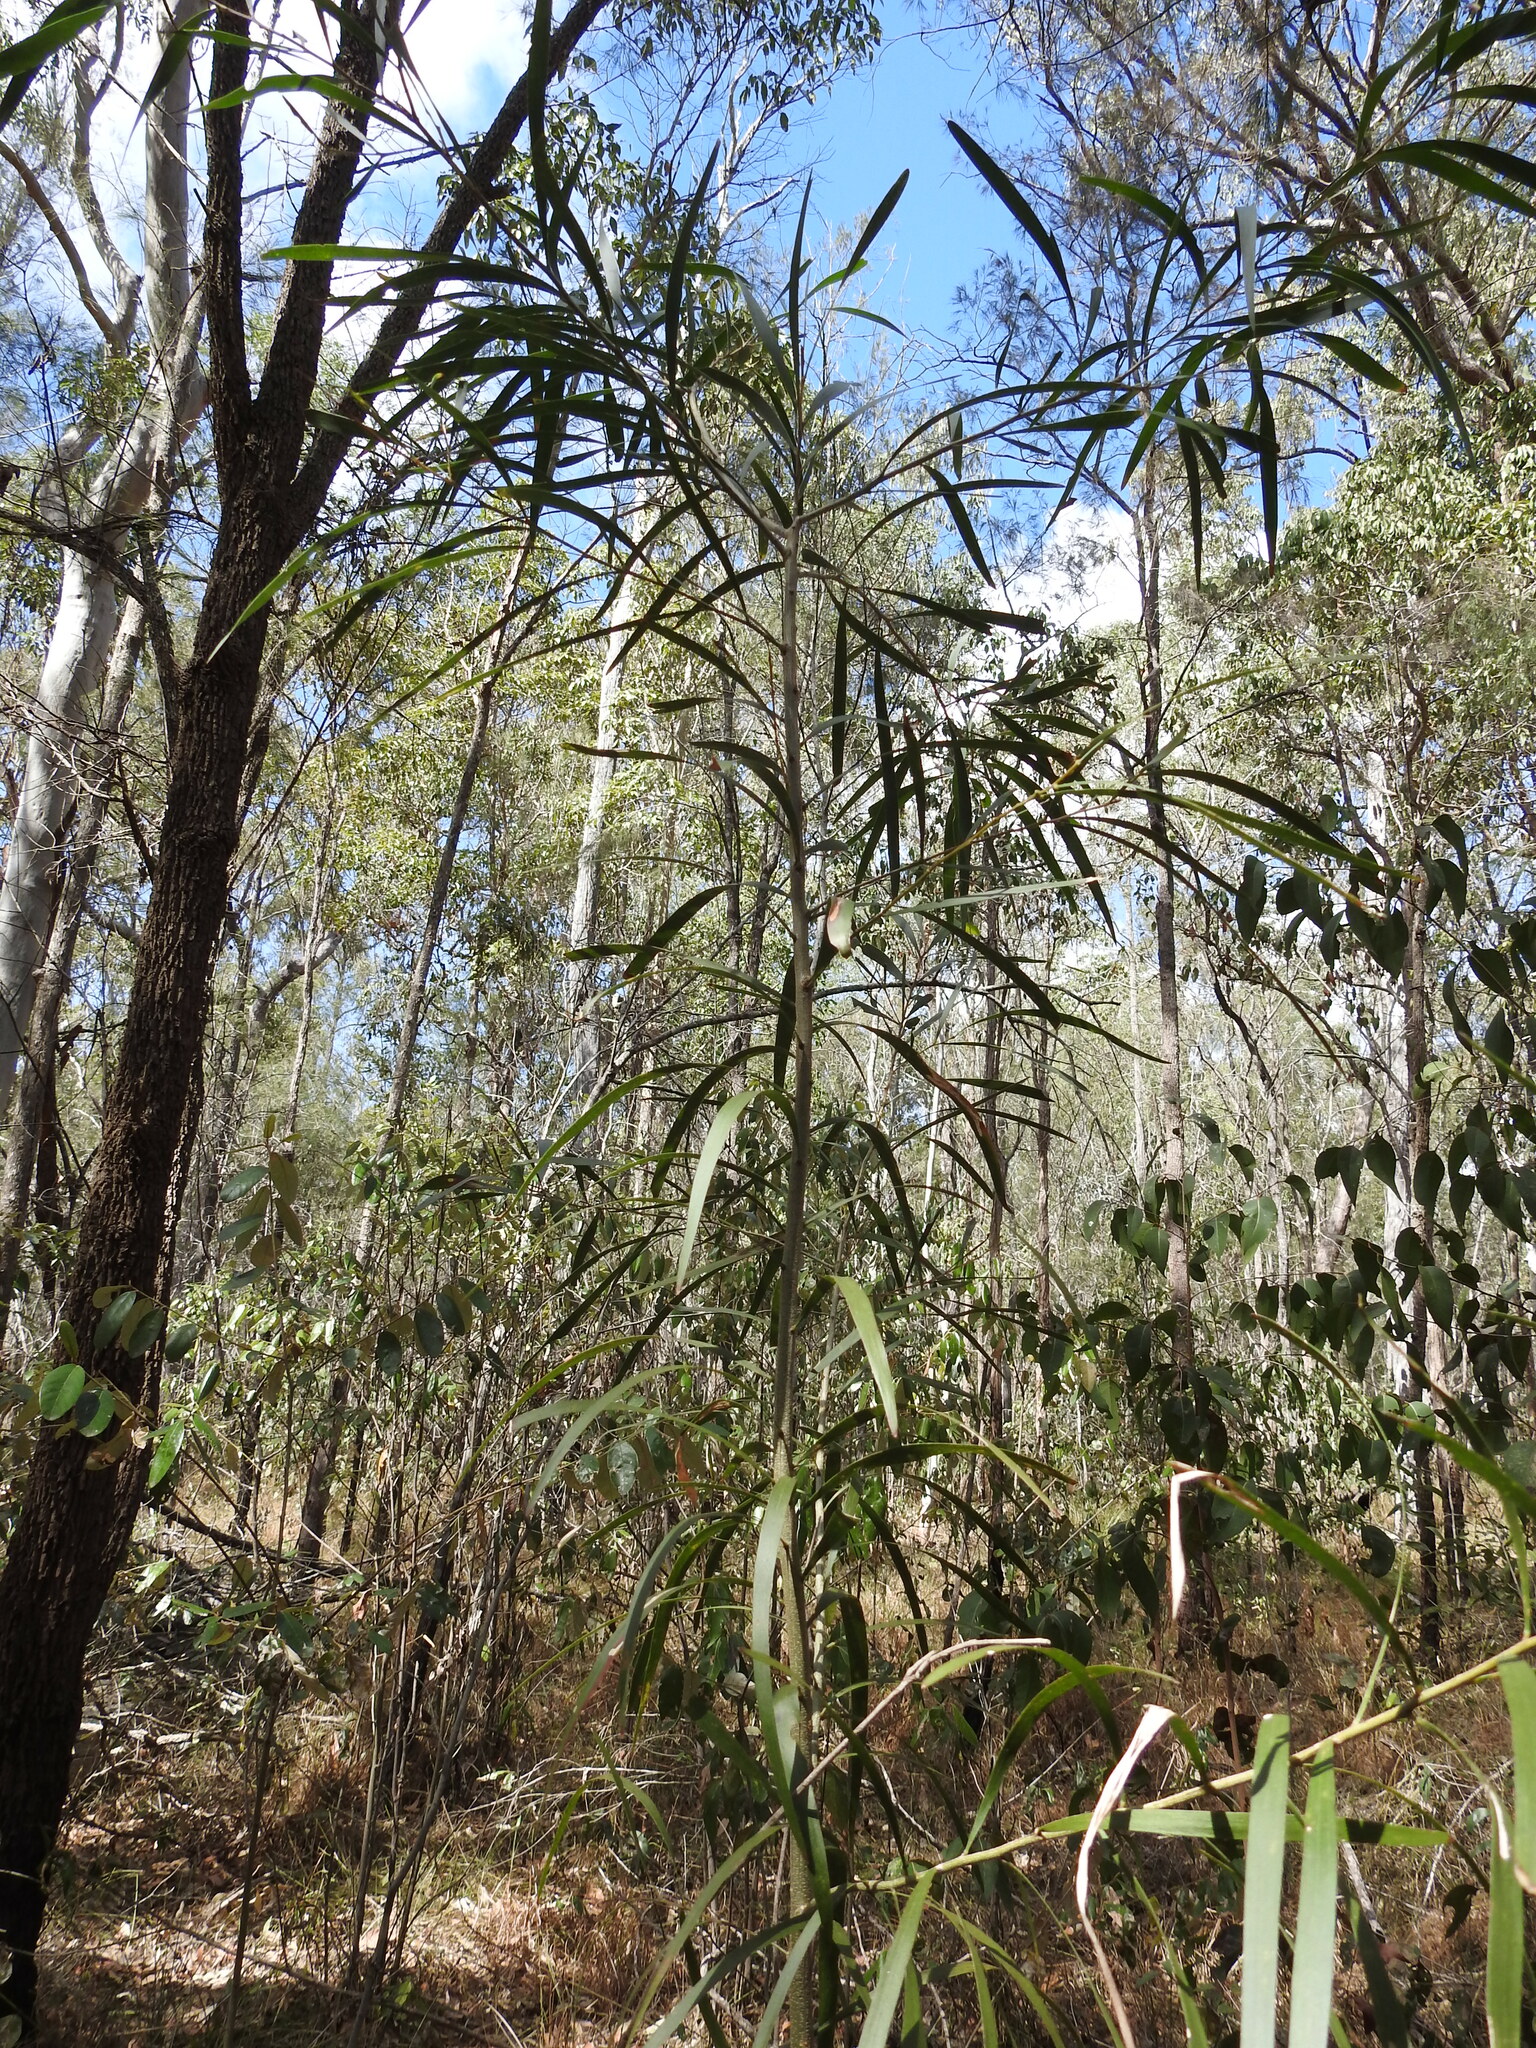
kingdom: Plantae
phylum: Tracheophyta
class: Magnoliopsida
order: Fabales
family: Fabaceae
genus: Acacia
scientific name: Acacia maidenii
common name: Maiden's wattle
